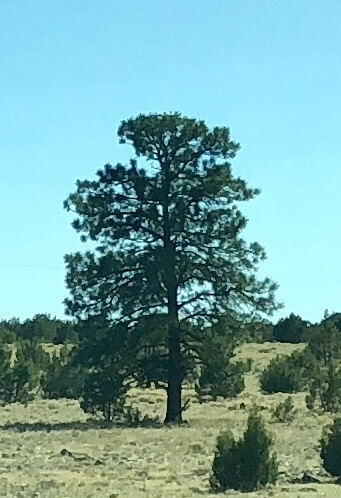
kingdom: Plantae
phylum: Tracheophyta
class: Pinopsida
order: Pinales
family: Pinaceae
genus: Pinus
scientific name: Pinus ponderosa
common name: Western yellow-pine
